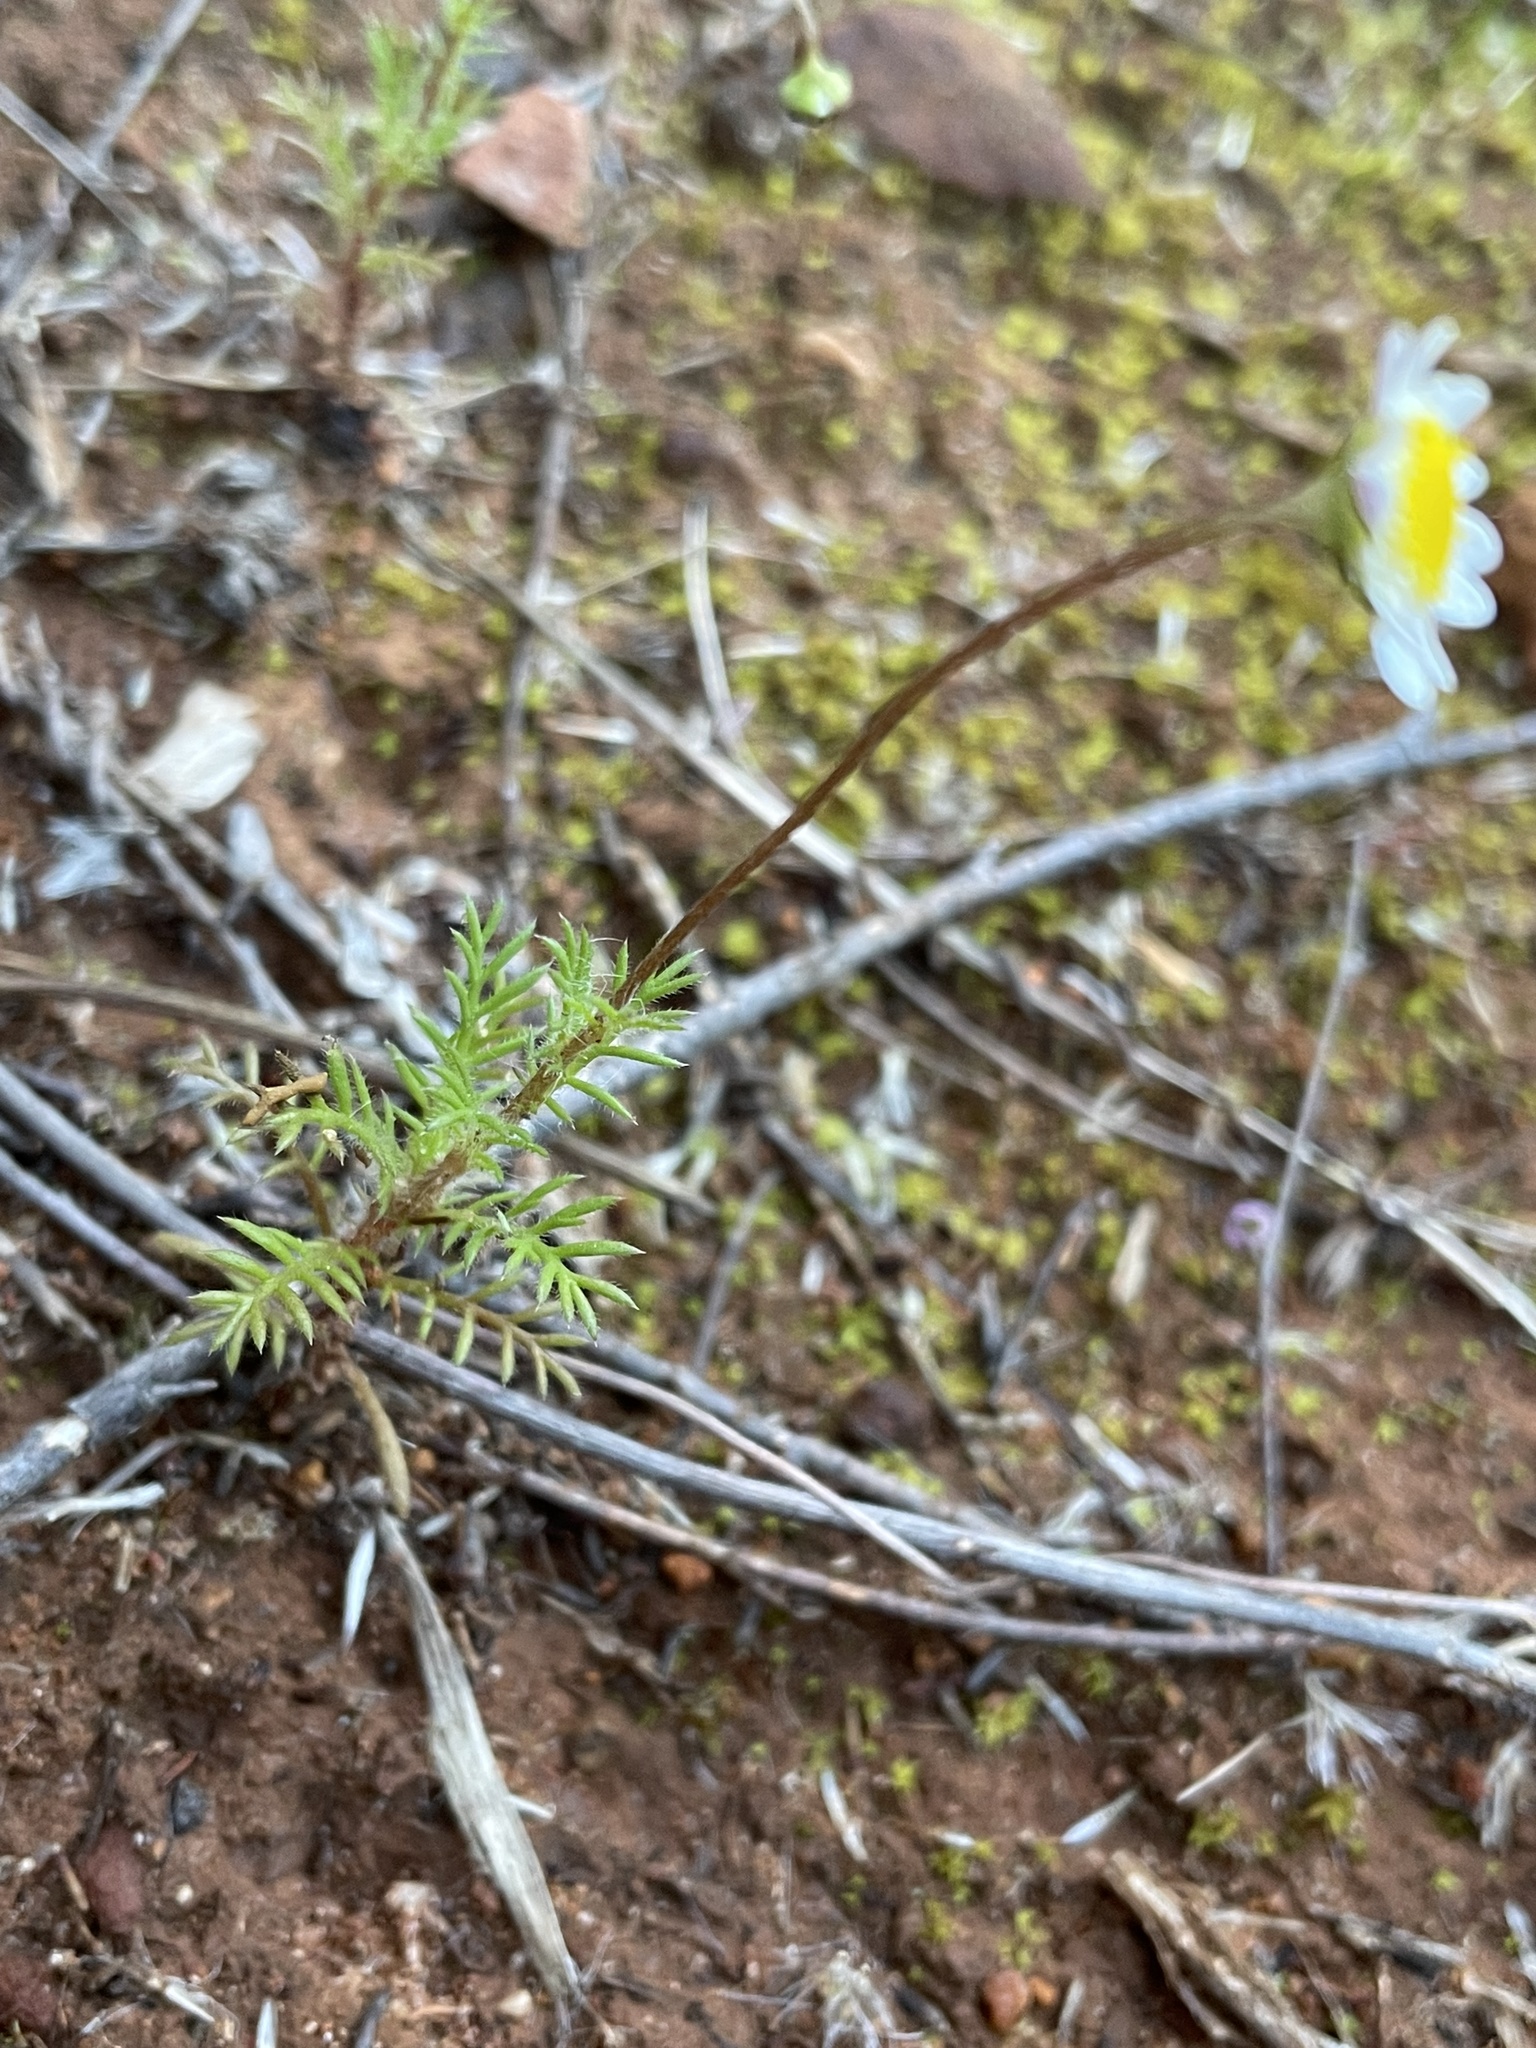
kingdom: Plantae
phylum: Tracheophyta
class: Magnoliopsida
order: Asterales
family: Asteraceae
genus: Cotula
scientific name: Cotula turbinata
